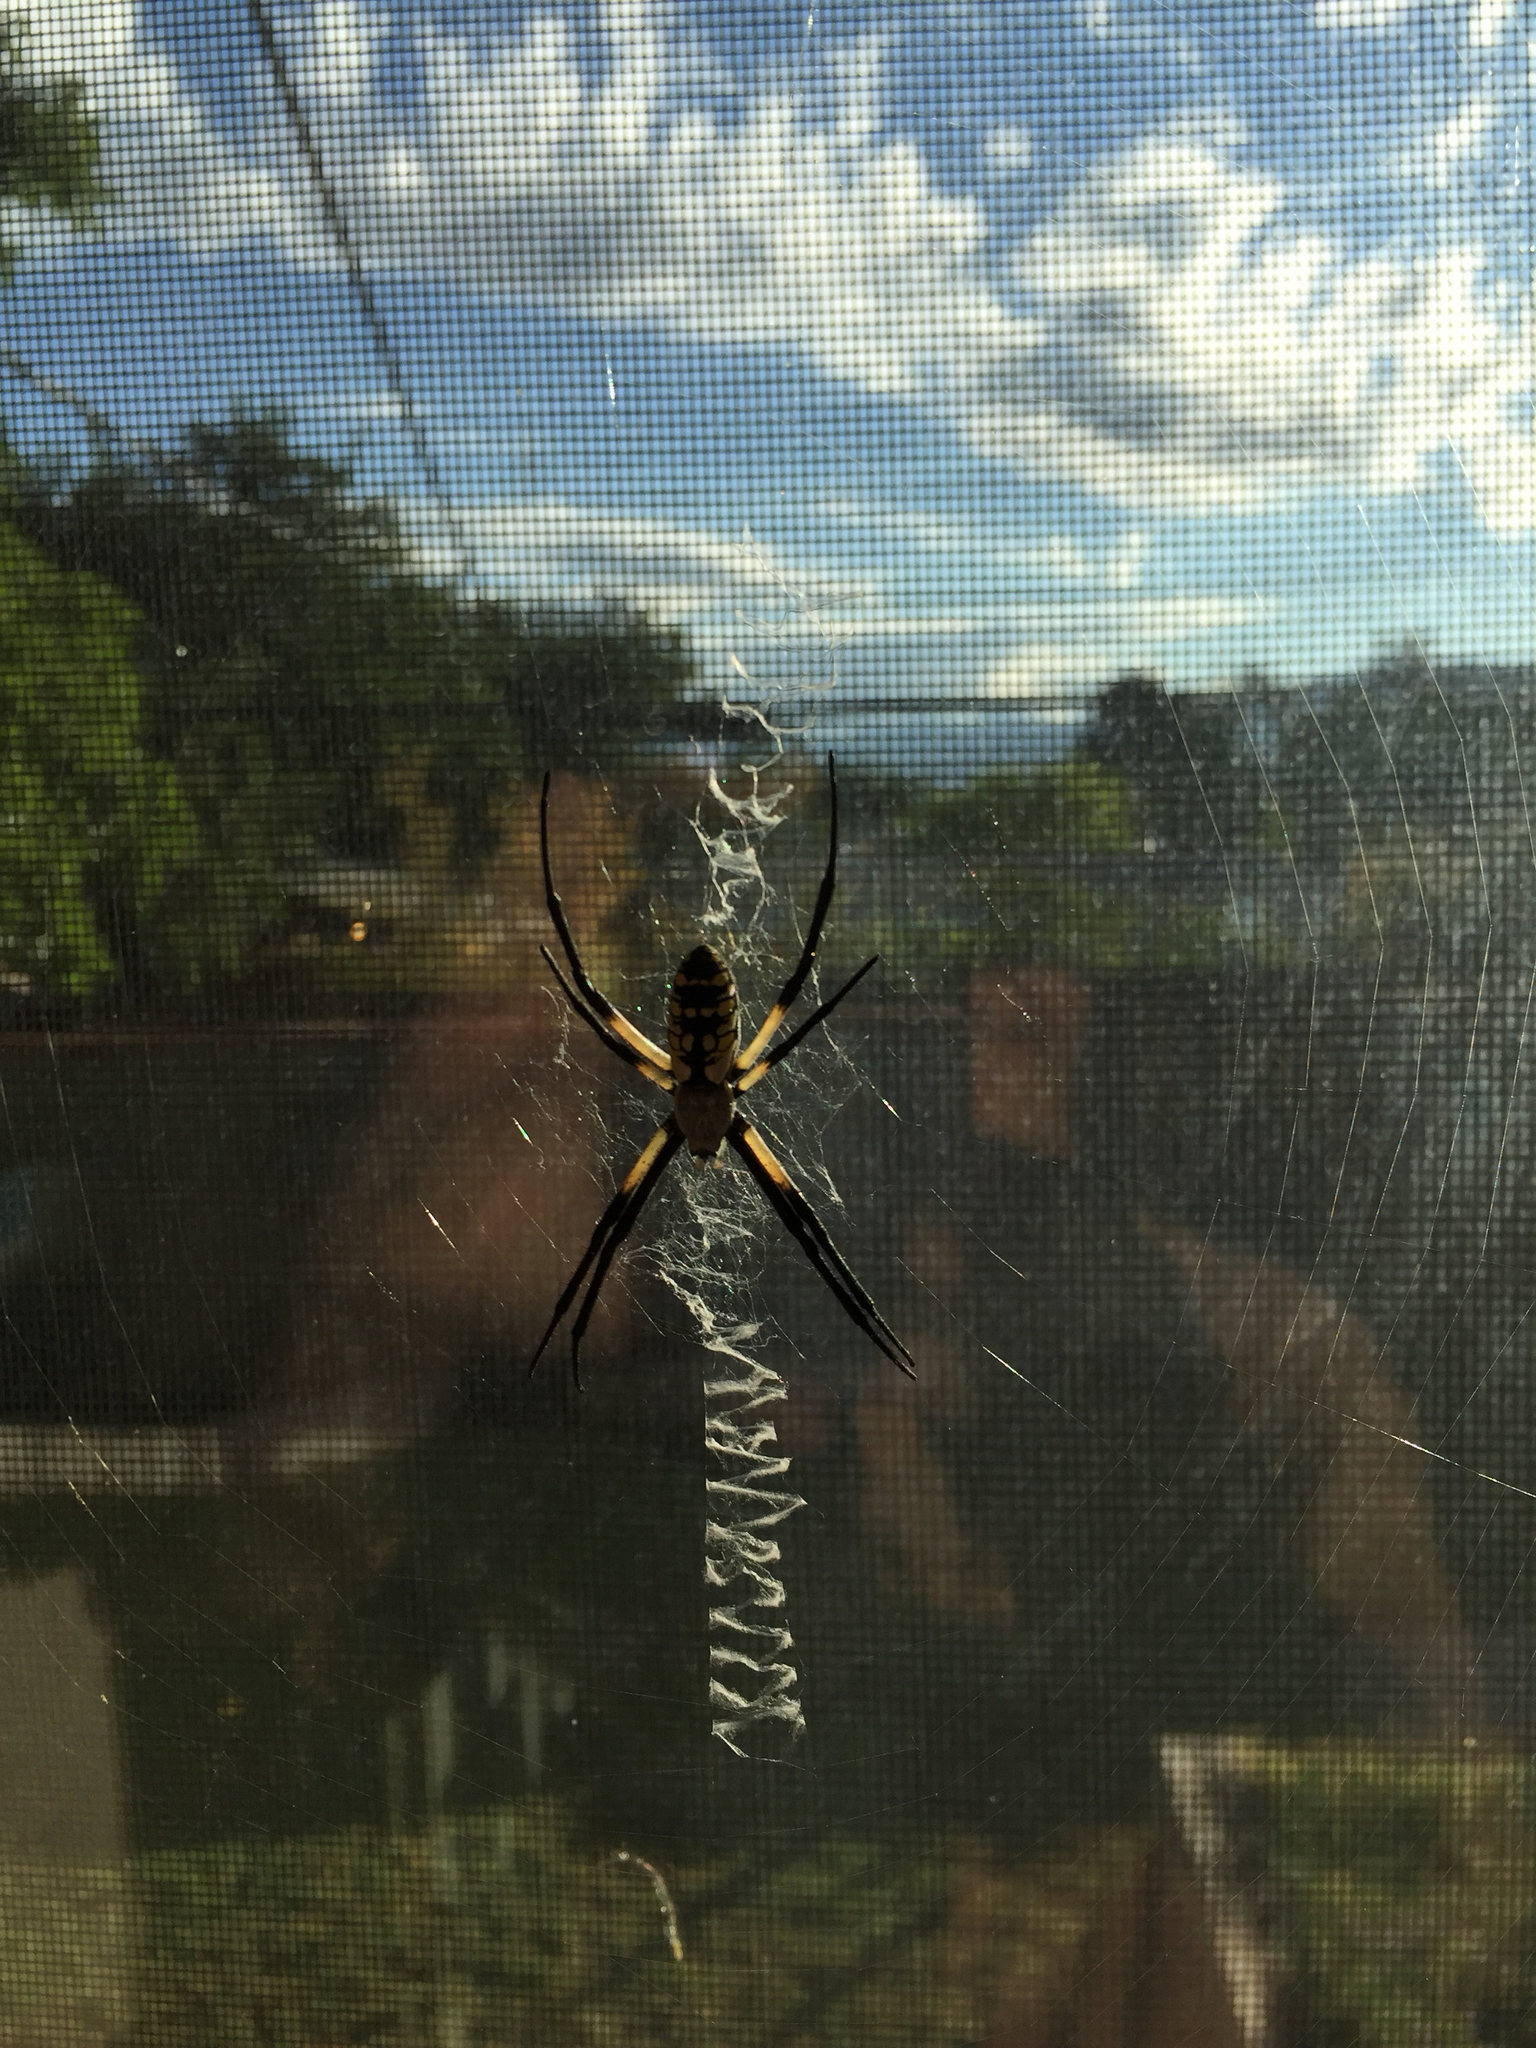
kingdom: Animalia
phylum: Arthropoda
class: Arachnida
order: Araneae
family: Araneidae
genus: Argiope
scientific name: Argiope aurantia
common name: Orb weavers
